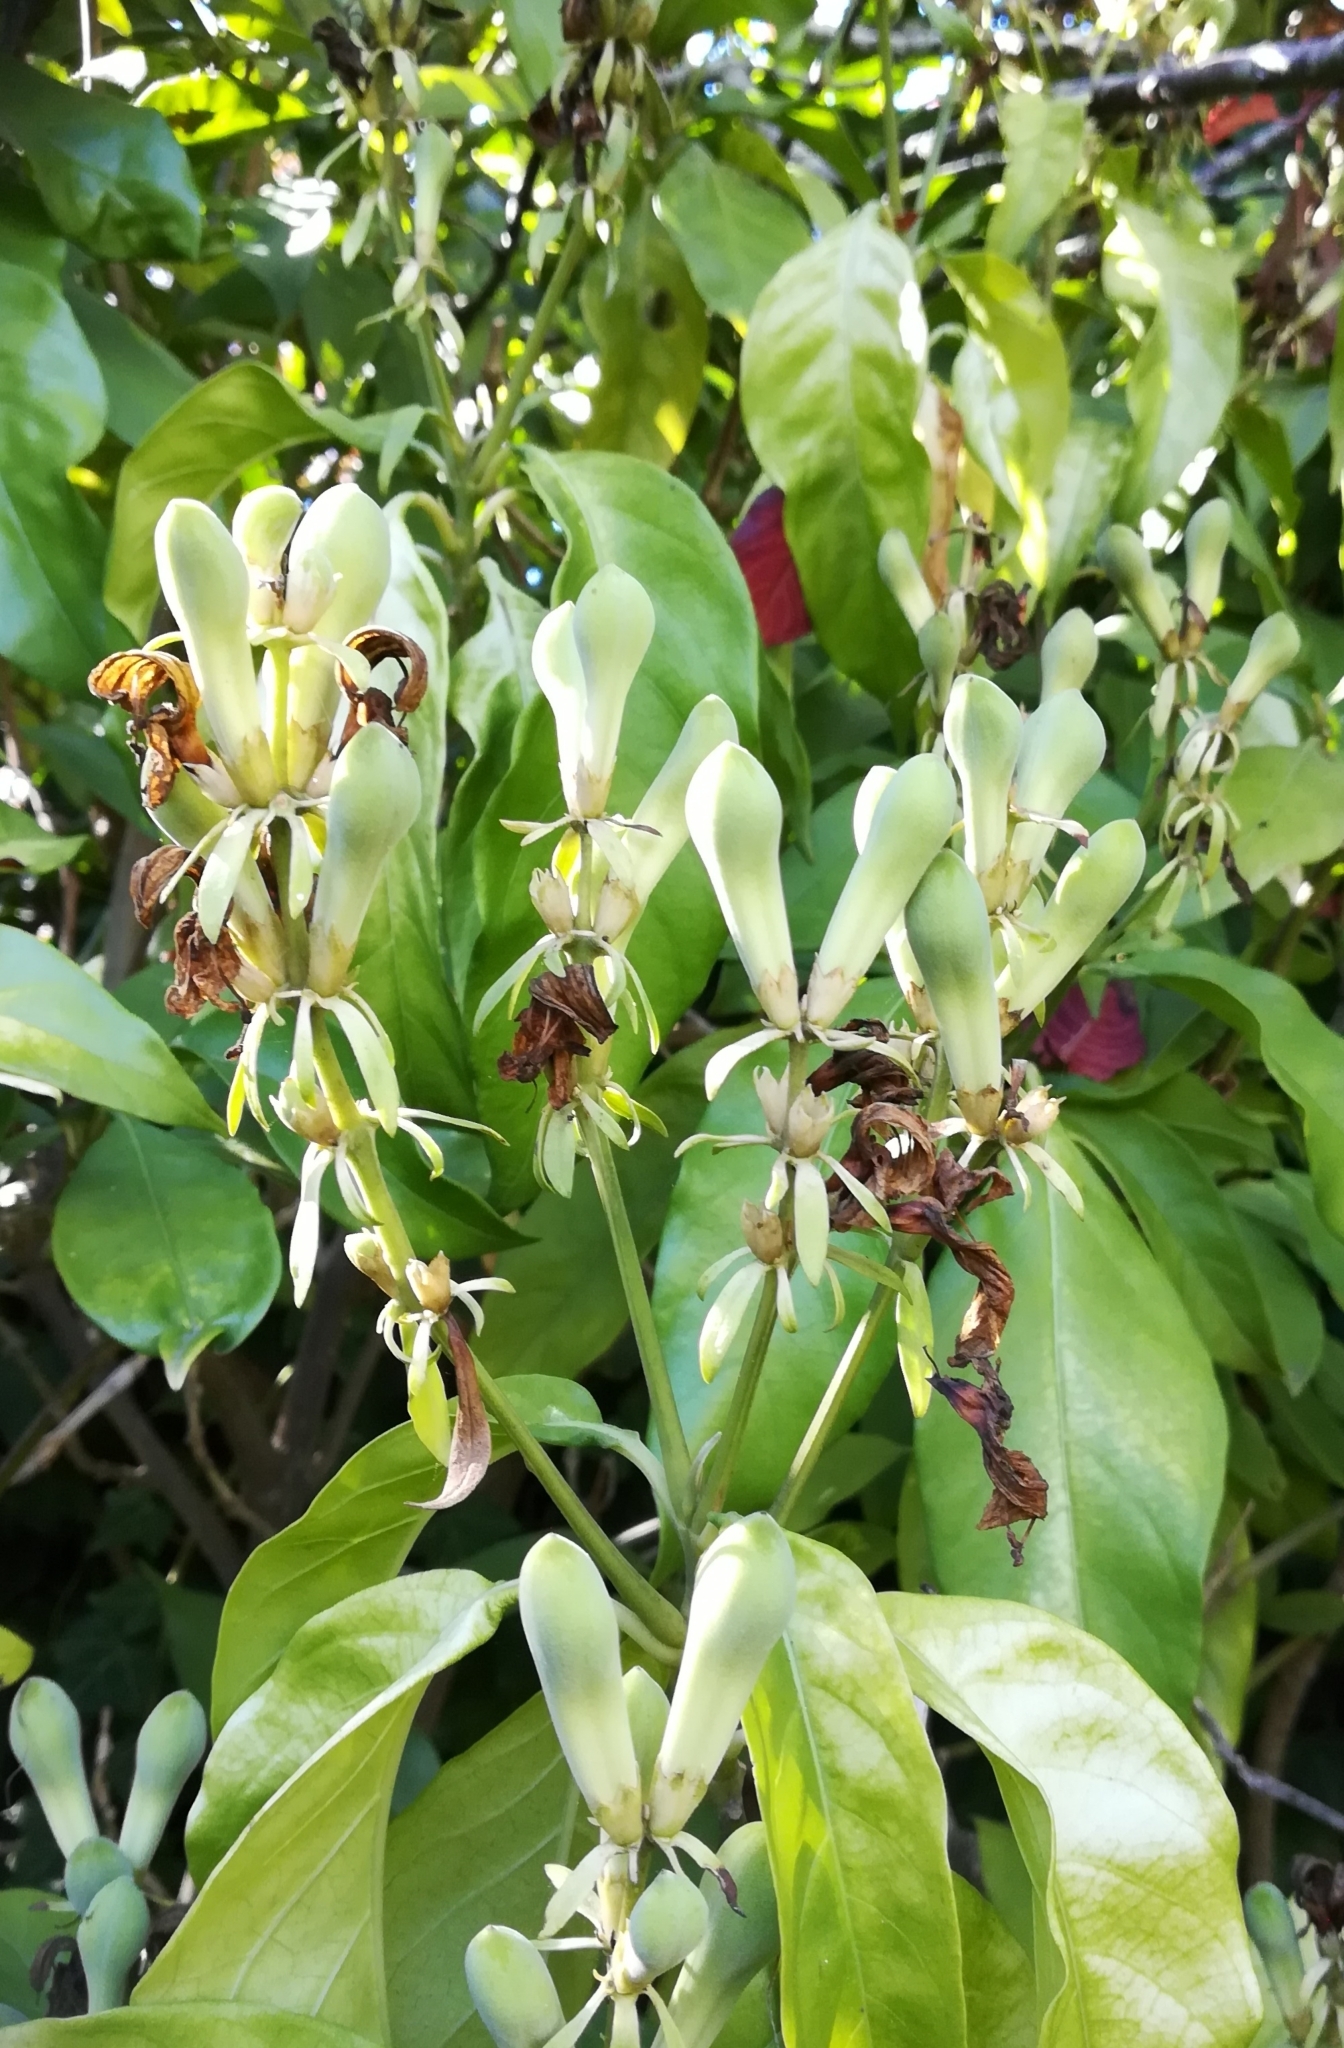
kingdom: Plantae
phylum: Tracheophyta
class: Magnoliopsida
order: Lamiales
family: Acanthaceae
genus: Justicia
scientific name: Justicia adhatodoides
